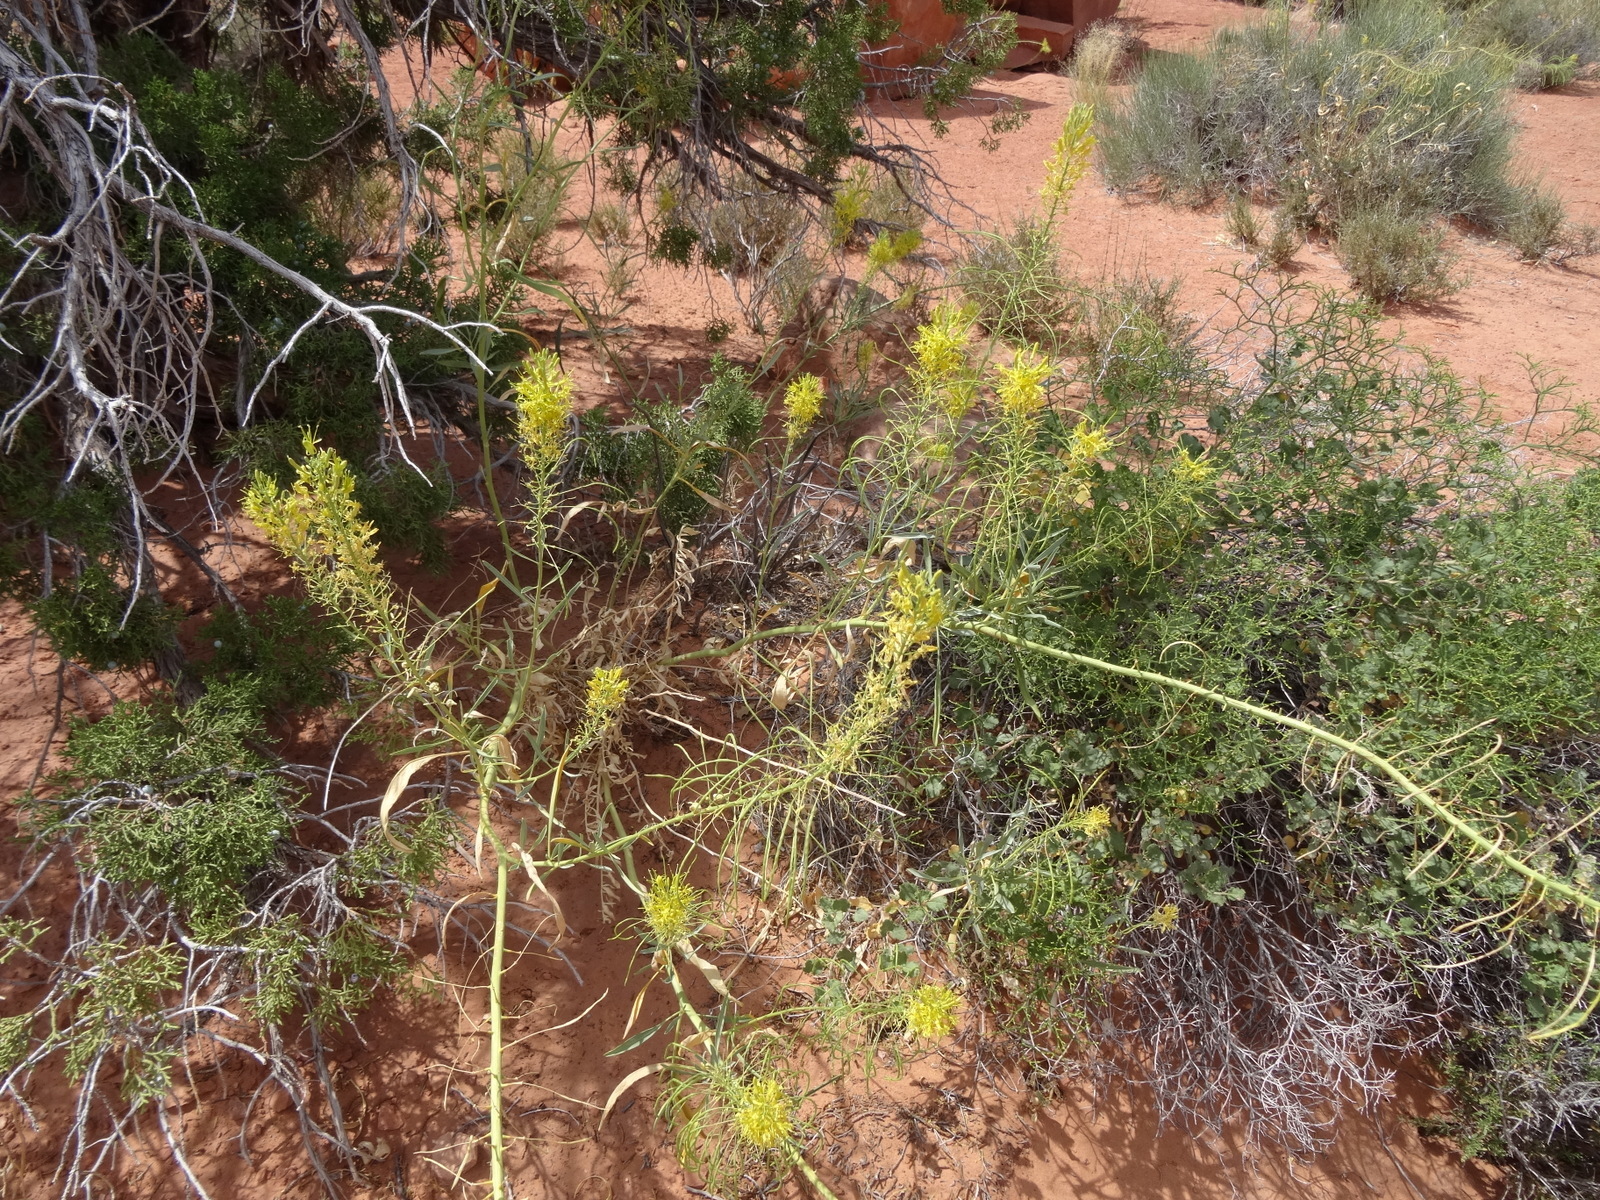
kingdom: Plantae
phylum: Tracheophyta
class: Magnoliopsida
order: Brassicales
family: Brassicaceae
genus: Stanleya
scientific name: Stanleya pinnata
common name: Prince's-plume
